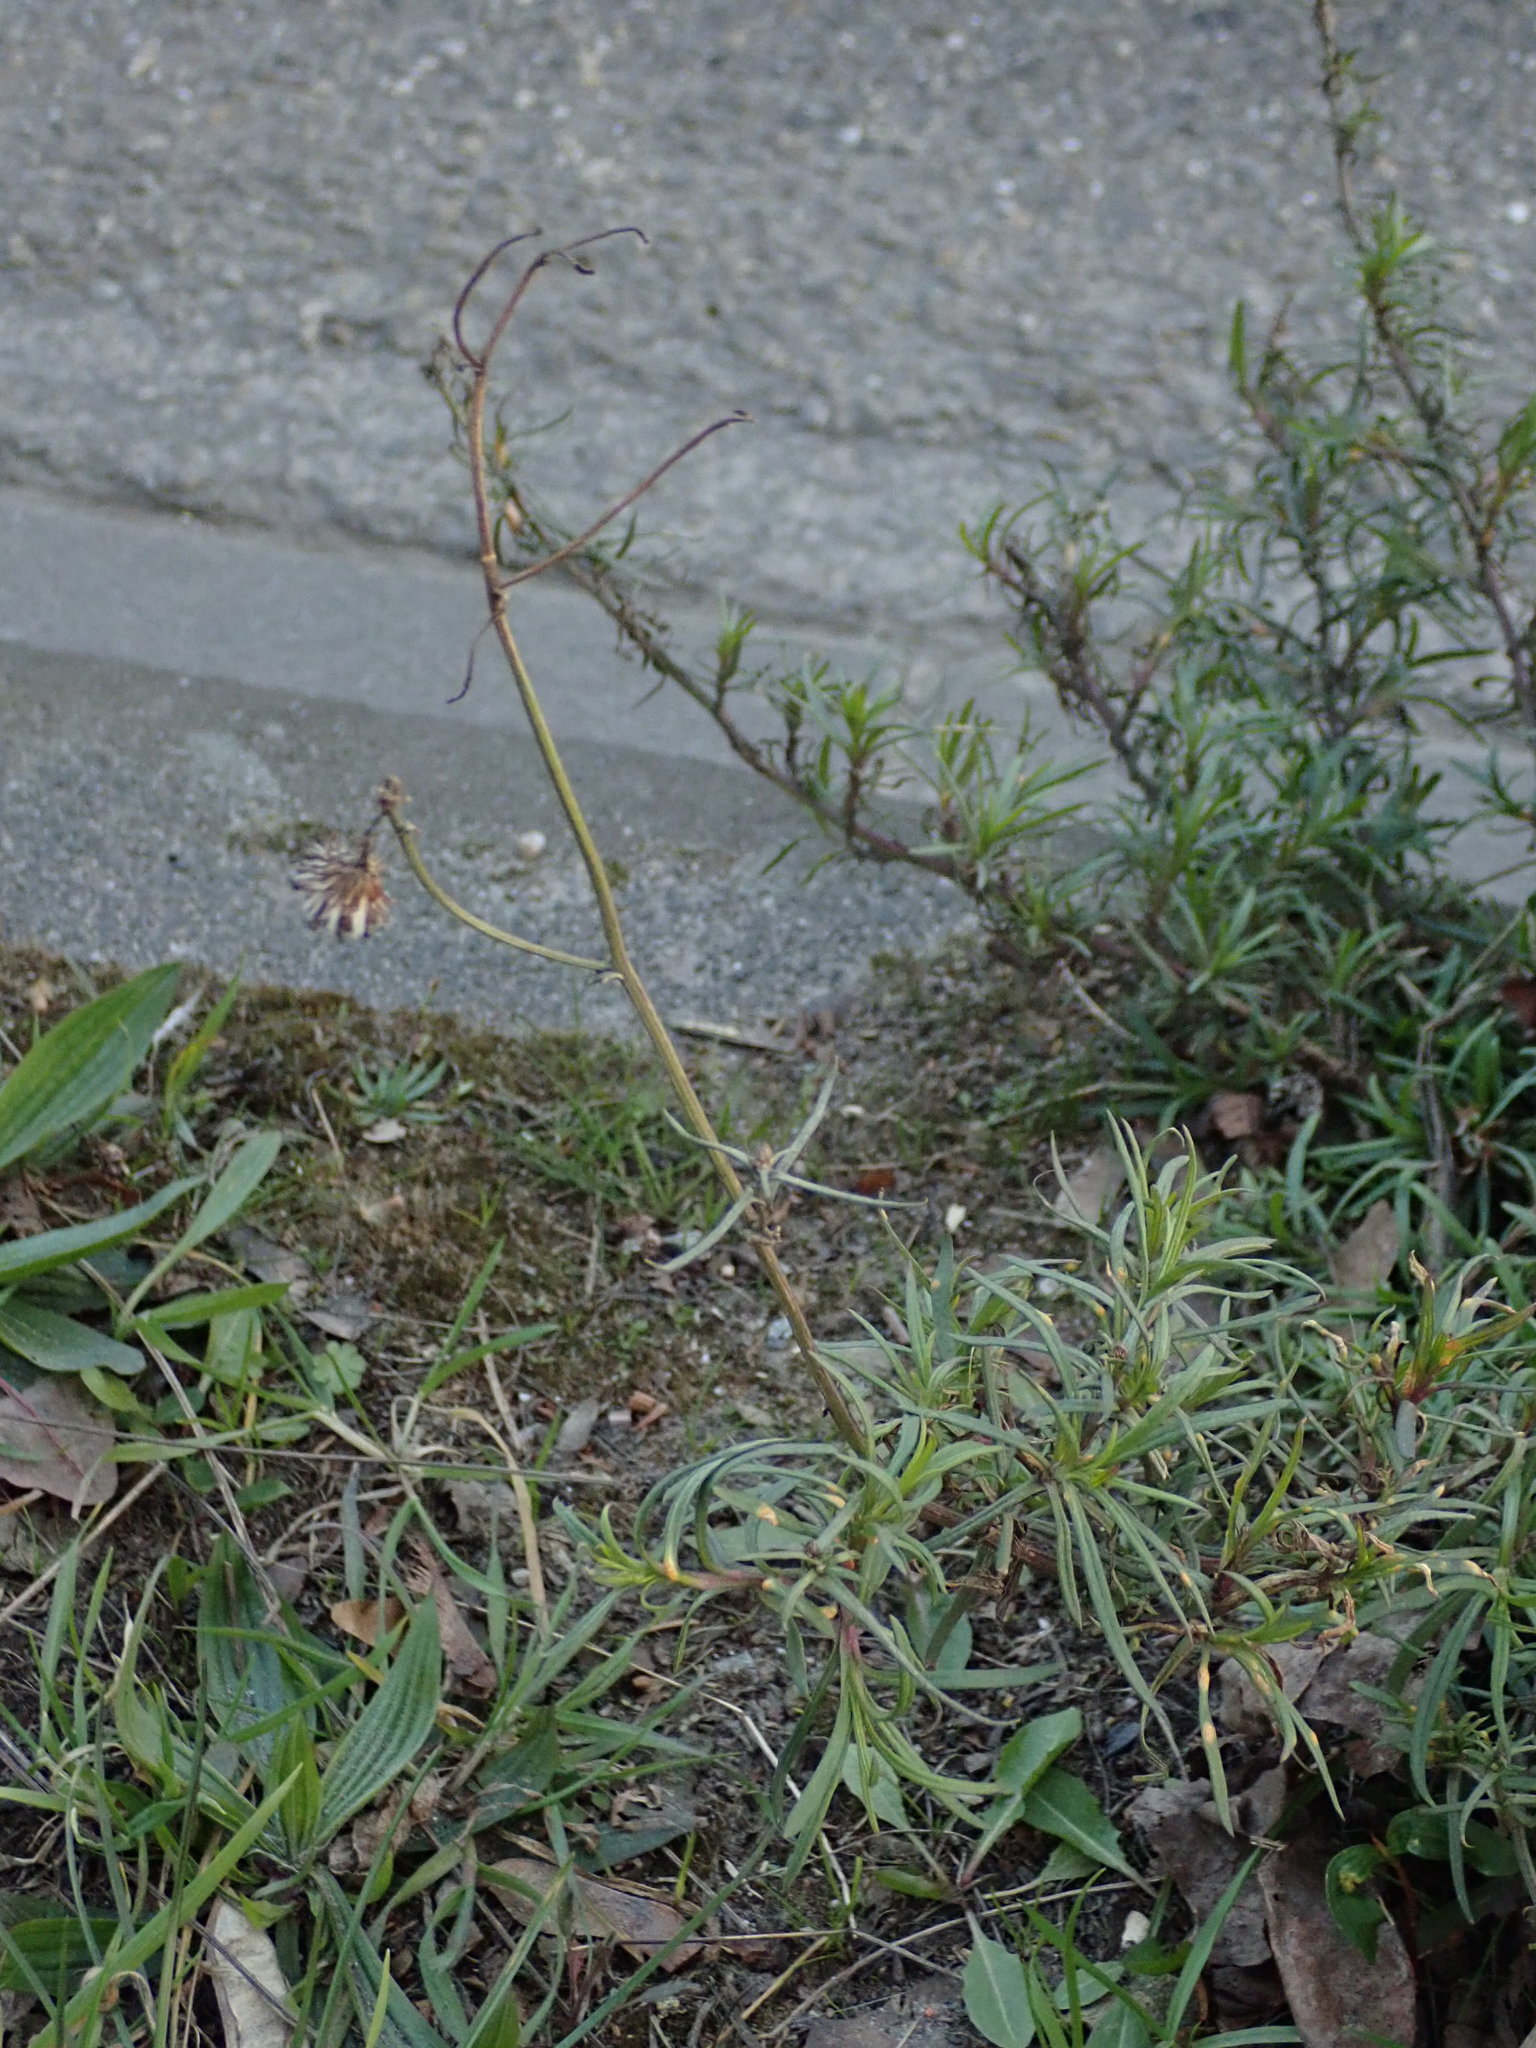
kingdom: Plantae
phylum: Tracheophyta
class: Magnoliopsida
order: Asterales
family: Asteraceae
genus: Senecio
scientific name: Senecio inaequidens
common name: Narrow-leaved ragwort
